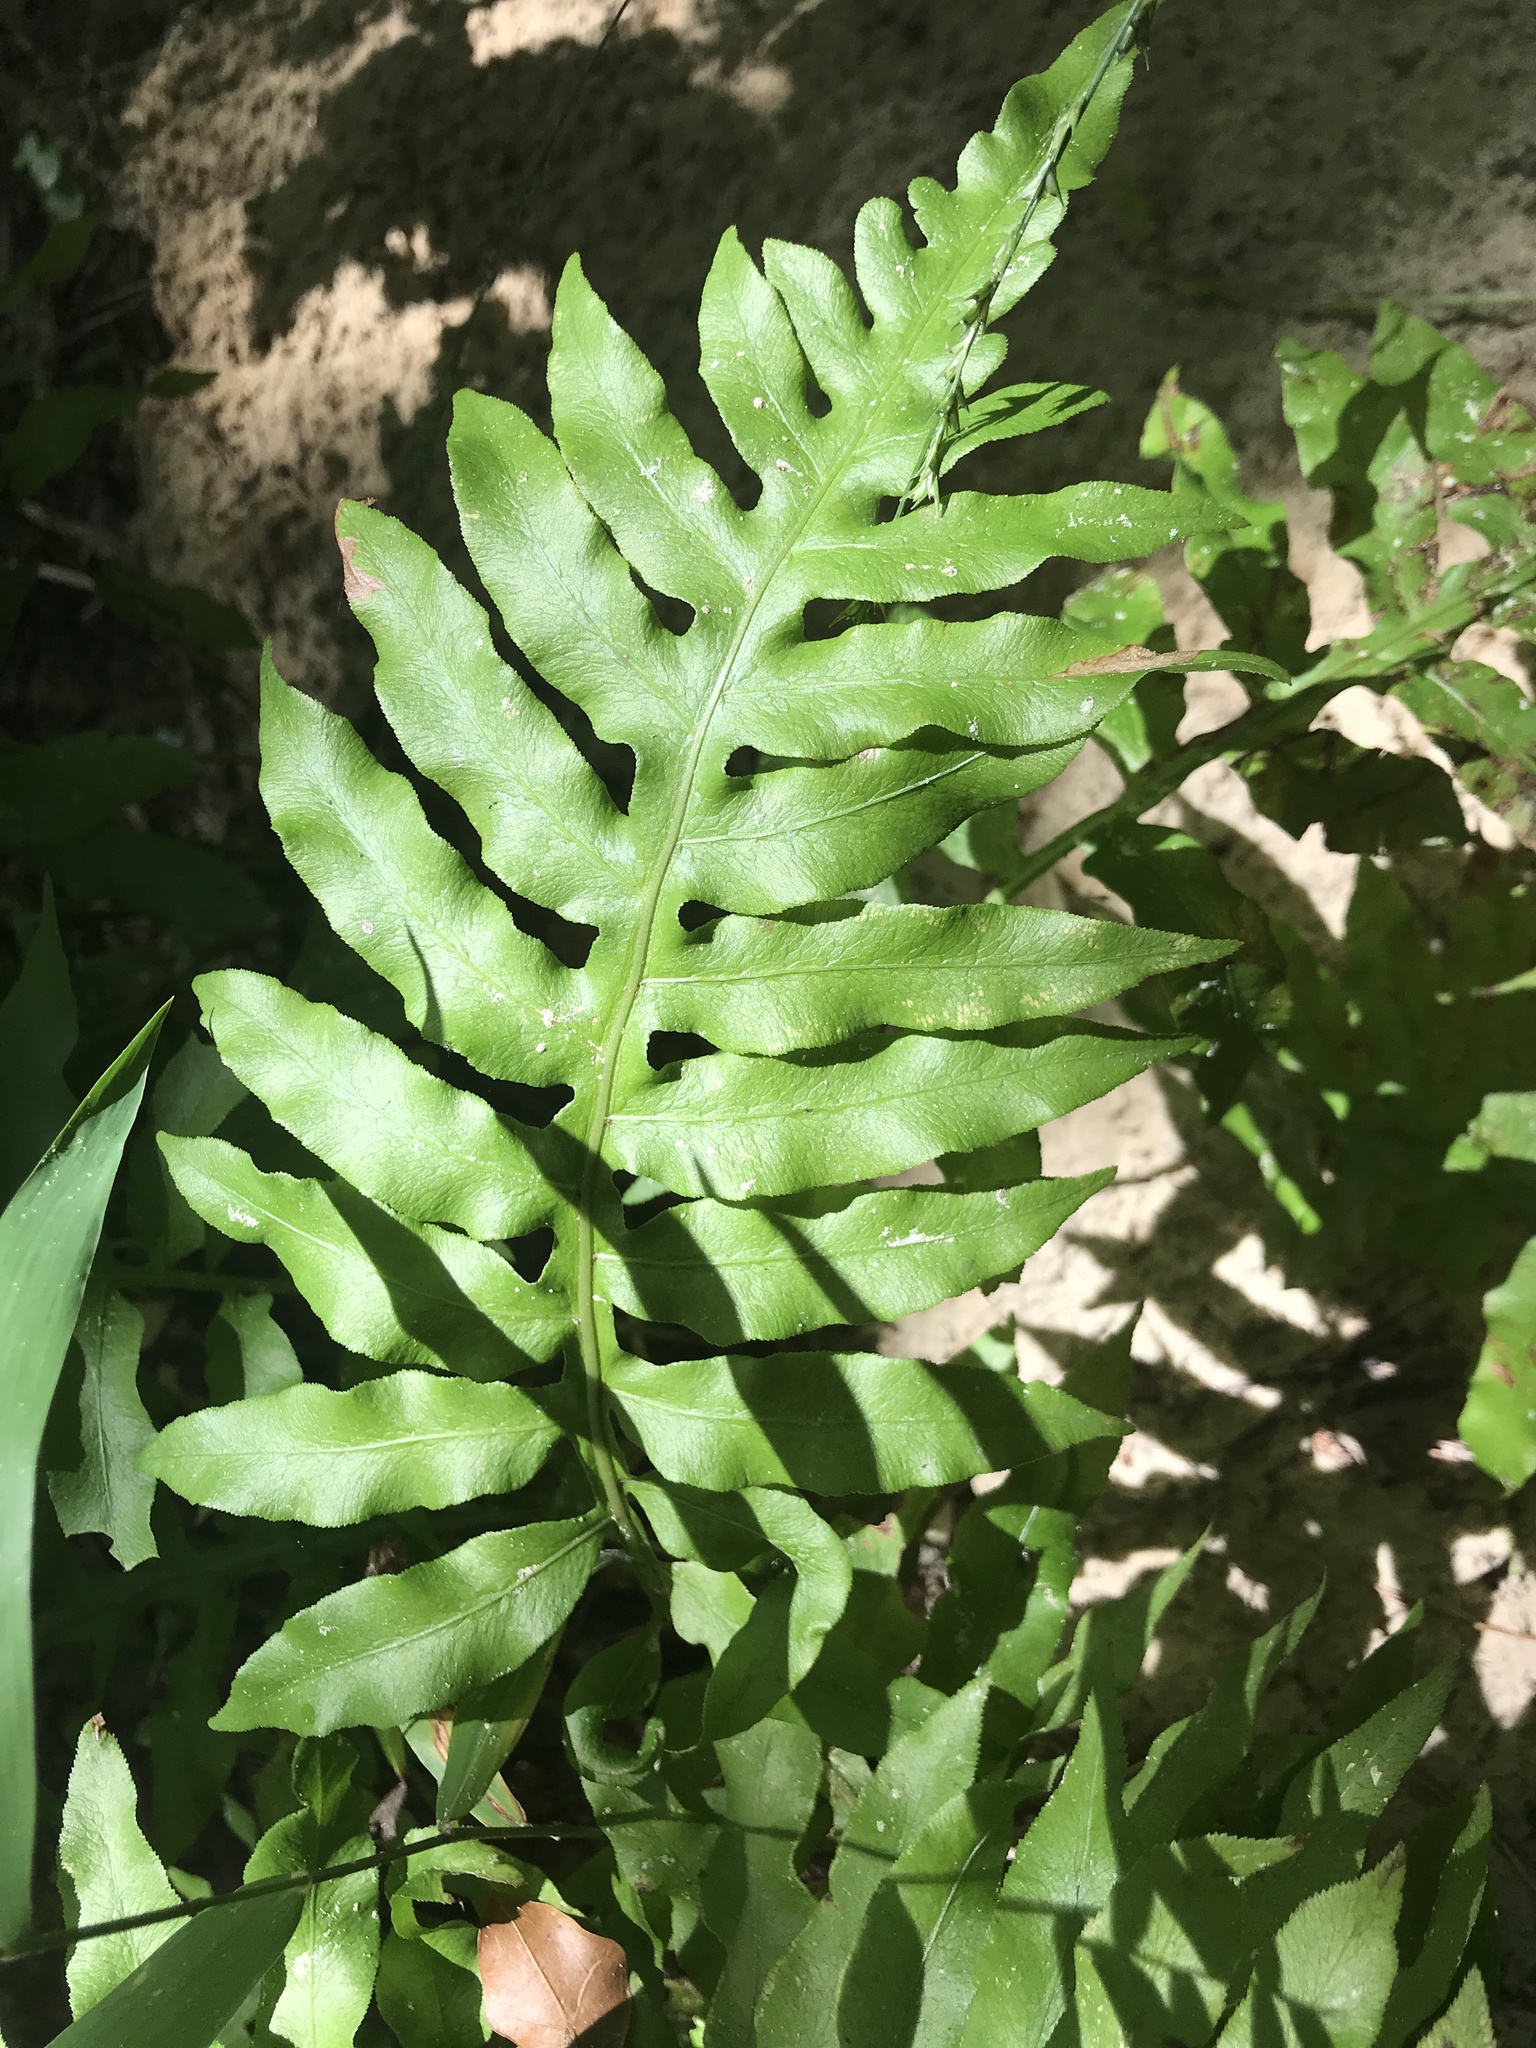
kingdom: Plantae
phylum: Tracheophyta
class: Polypodiopsida
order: Polypodiales
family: Blechnaceae
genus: Lorinseria
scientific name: Lorinseria areolata
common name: Dwarf chain fern
